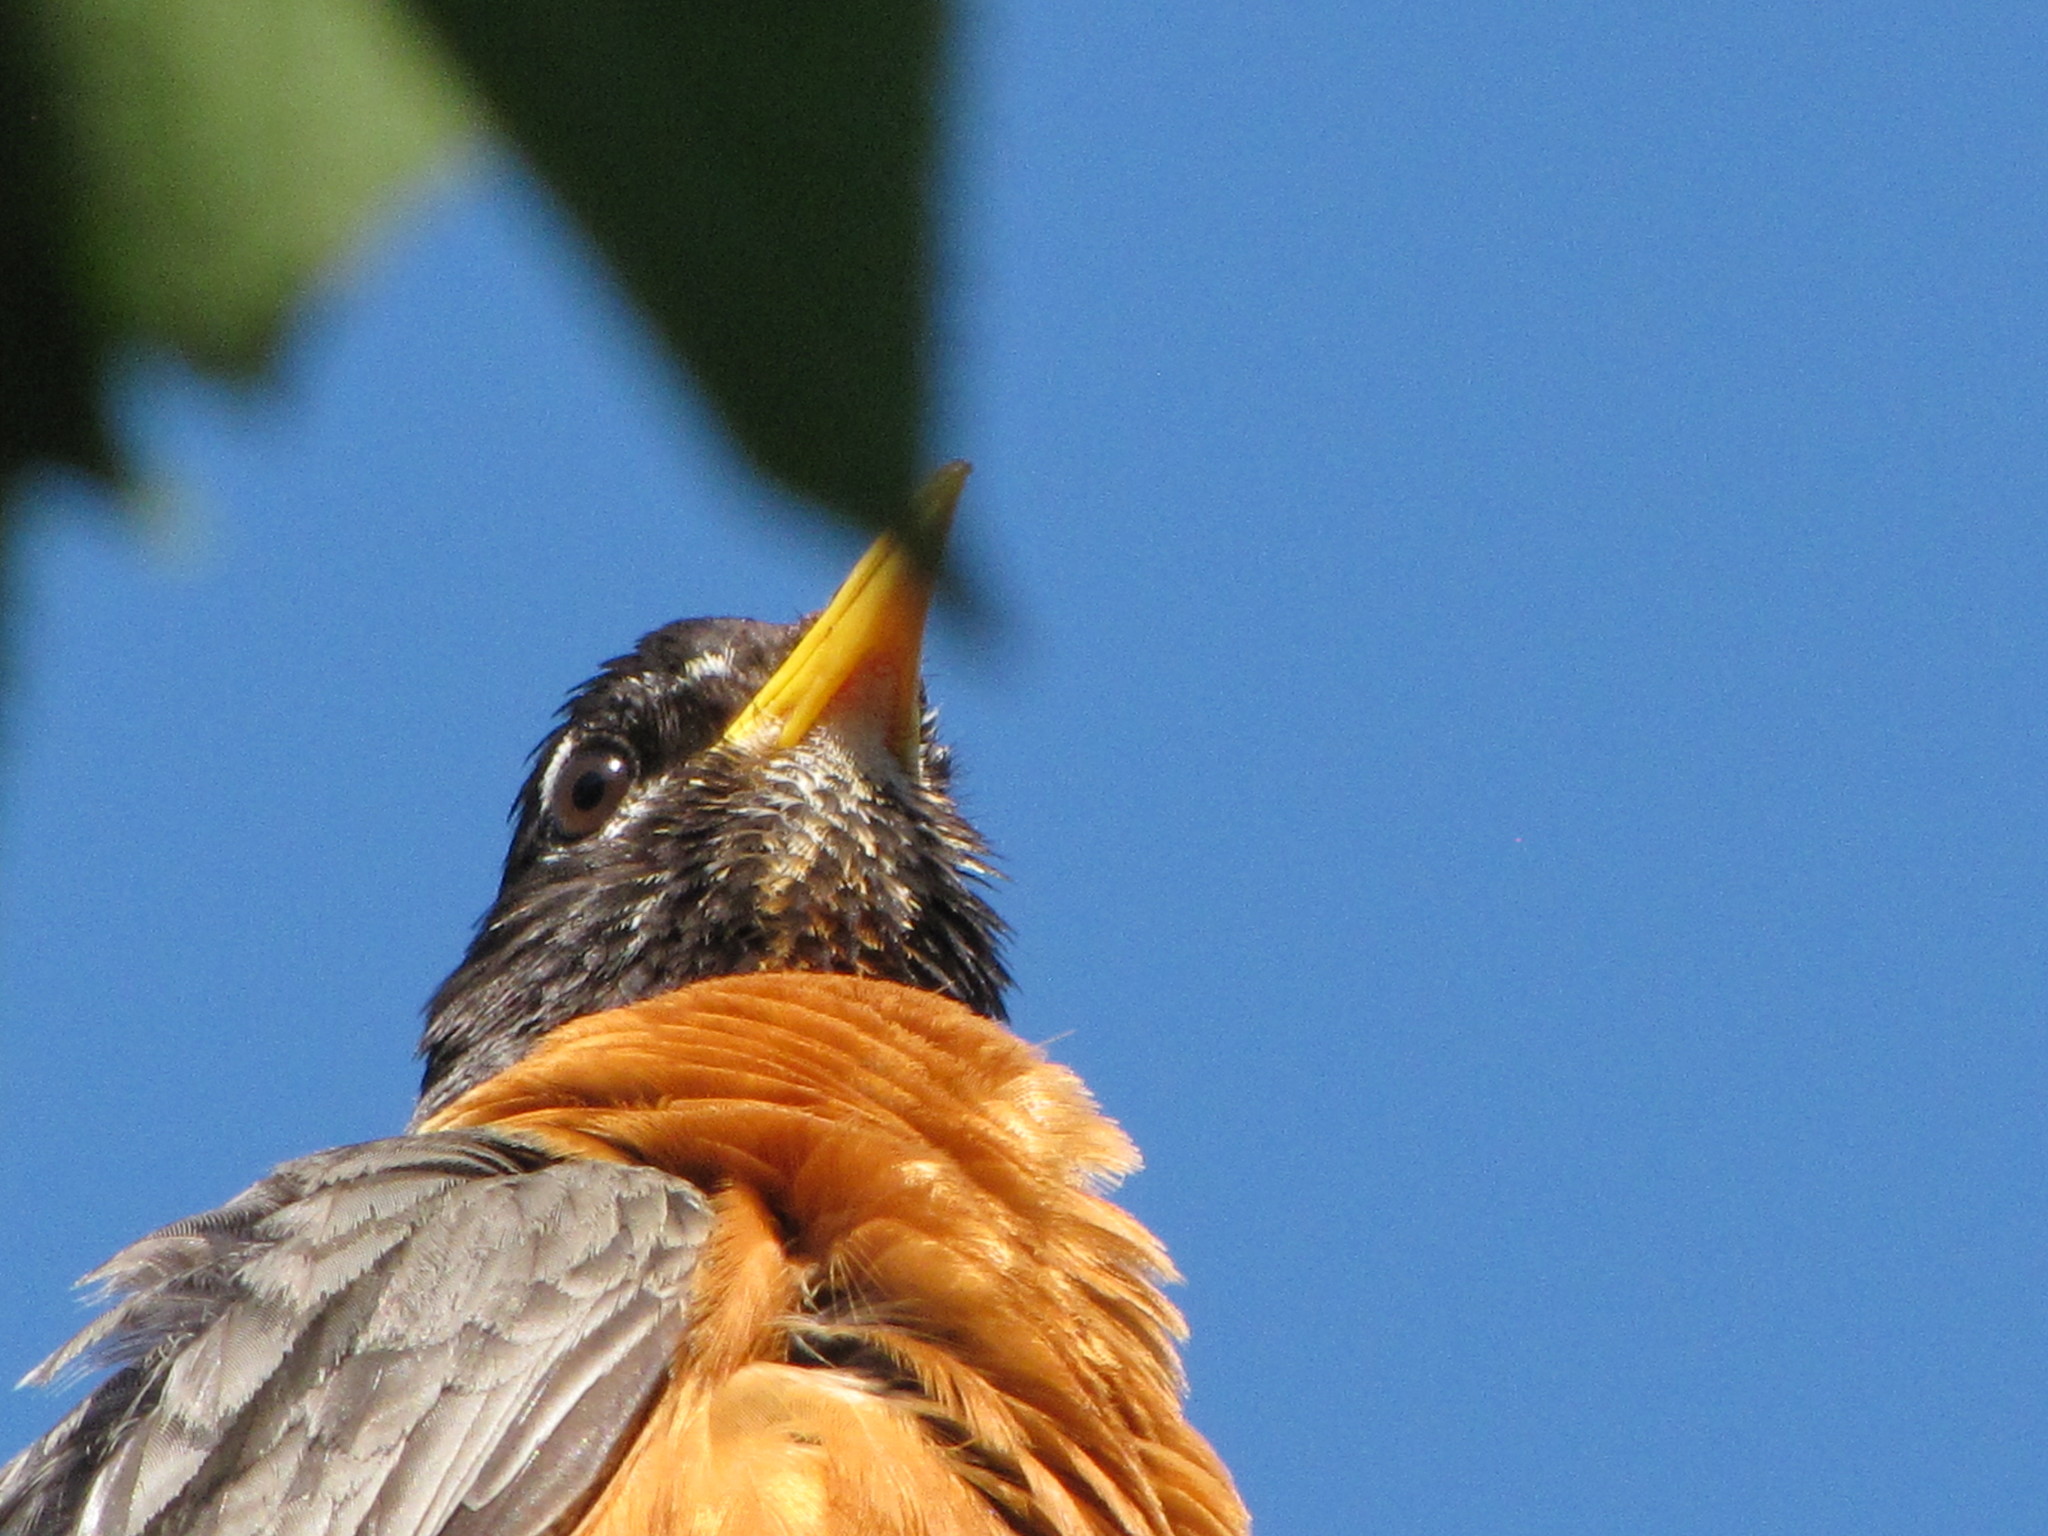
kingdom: Animalia
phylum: Chordata
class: Aves
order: Passeriformes
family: Turdidae
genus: Turdus
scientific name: Turdus migratorius
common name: American robin
